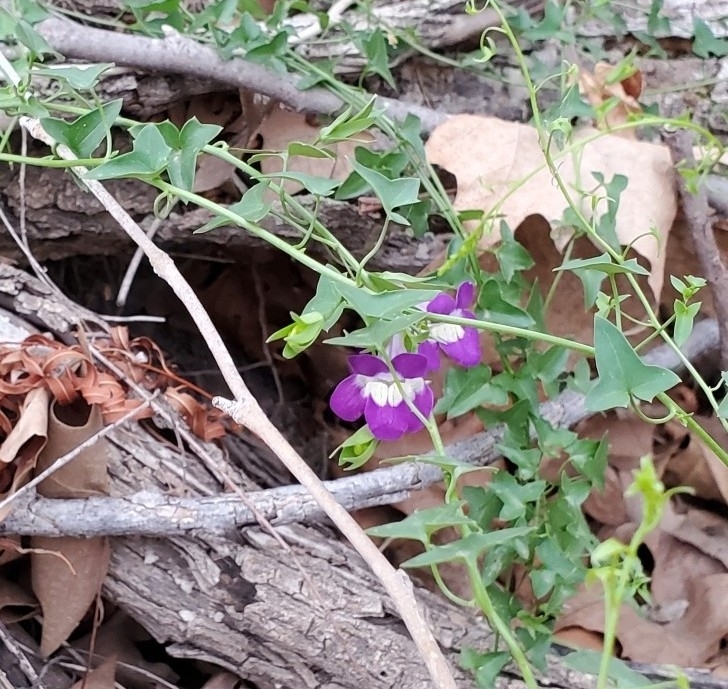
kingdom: Plantae
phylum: Tracheophyta
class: Magnoliopsida
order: Lamiales
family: Plantaginaceae
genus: Maurandella
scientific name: Maurandella antirrhiniflora
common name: Violet twining-snapdragon
